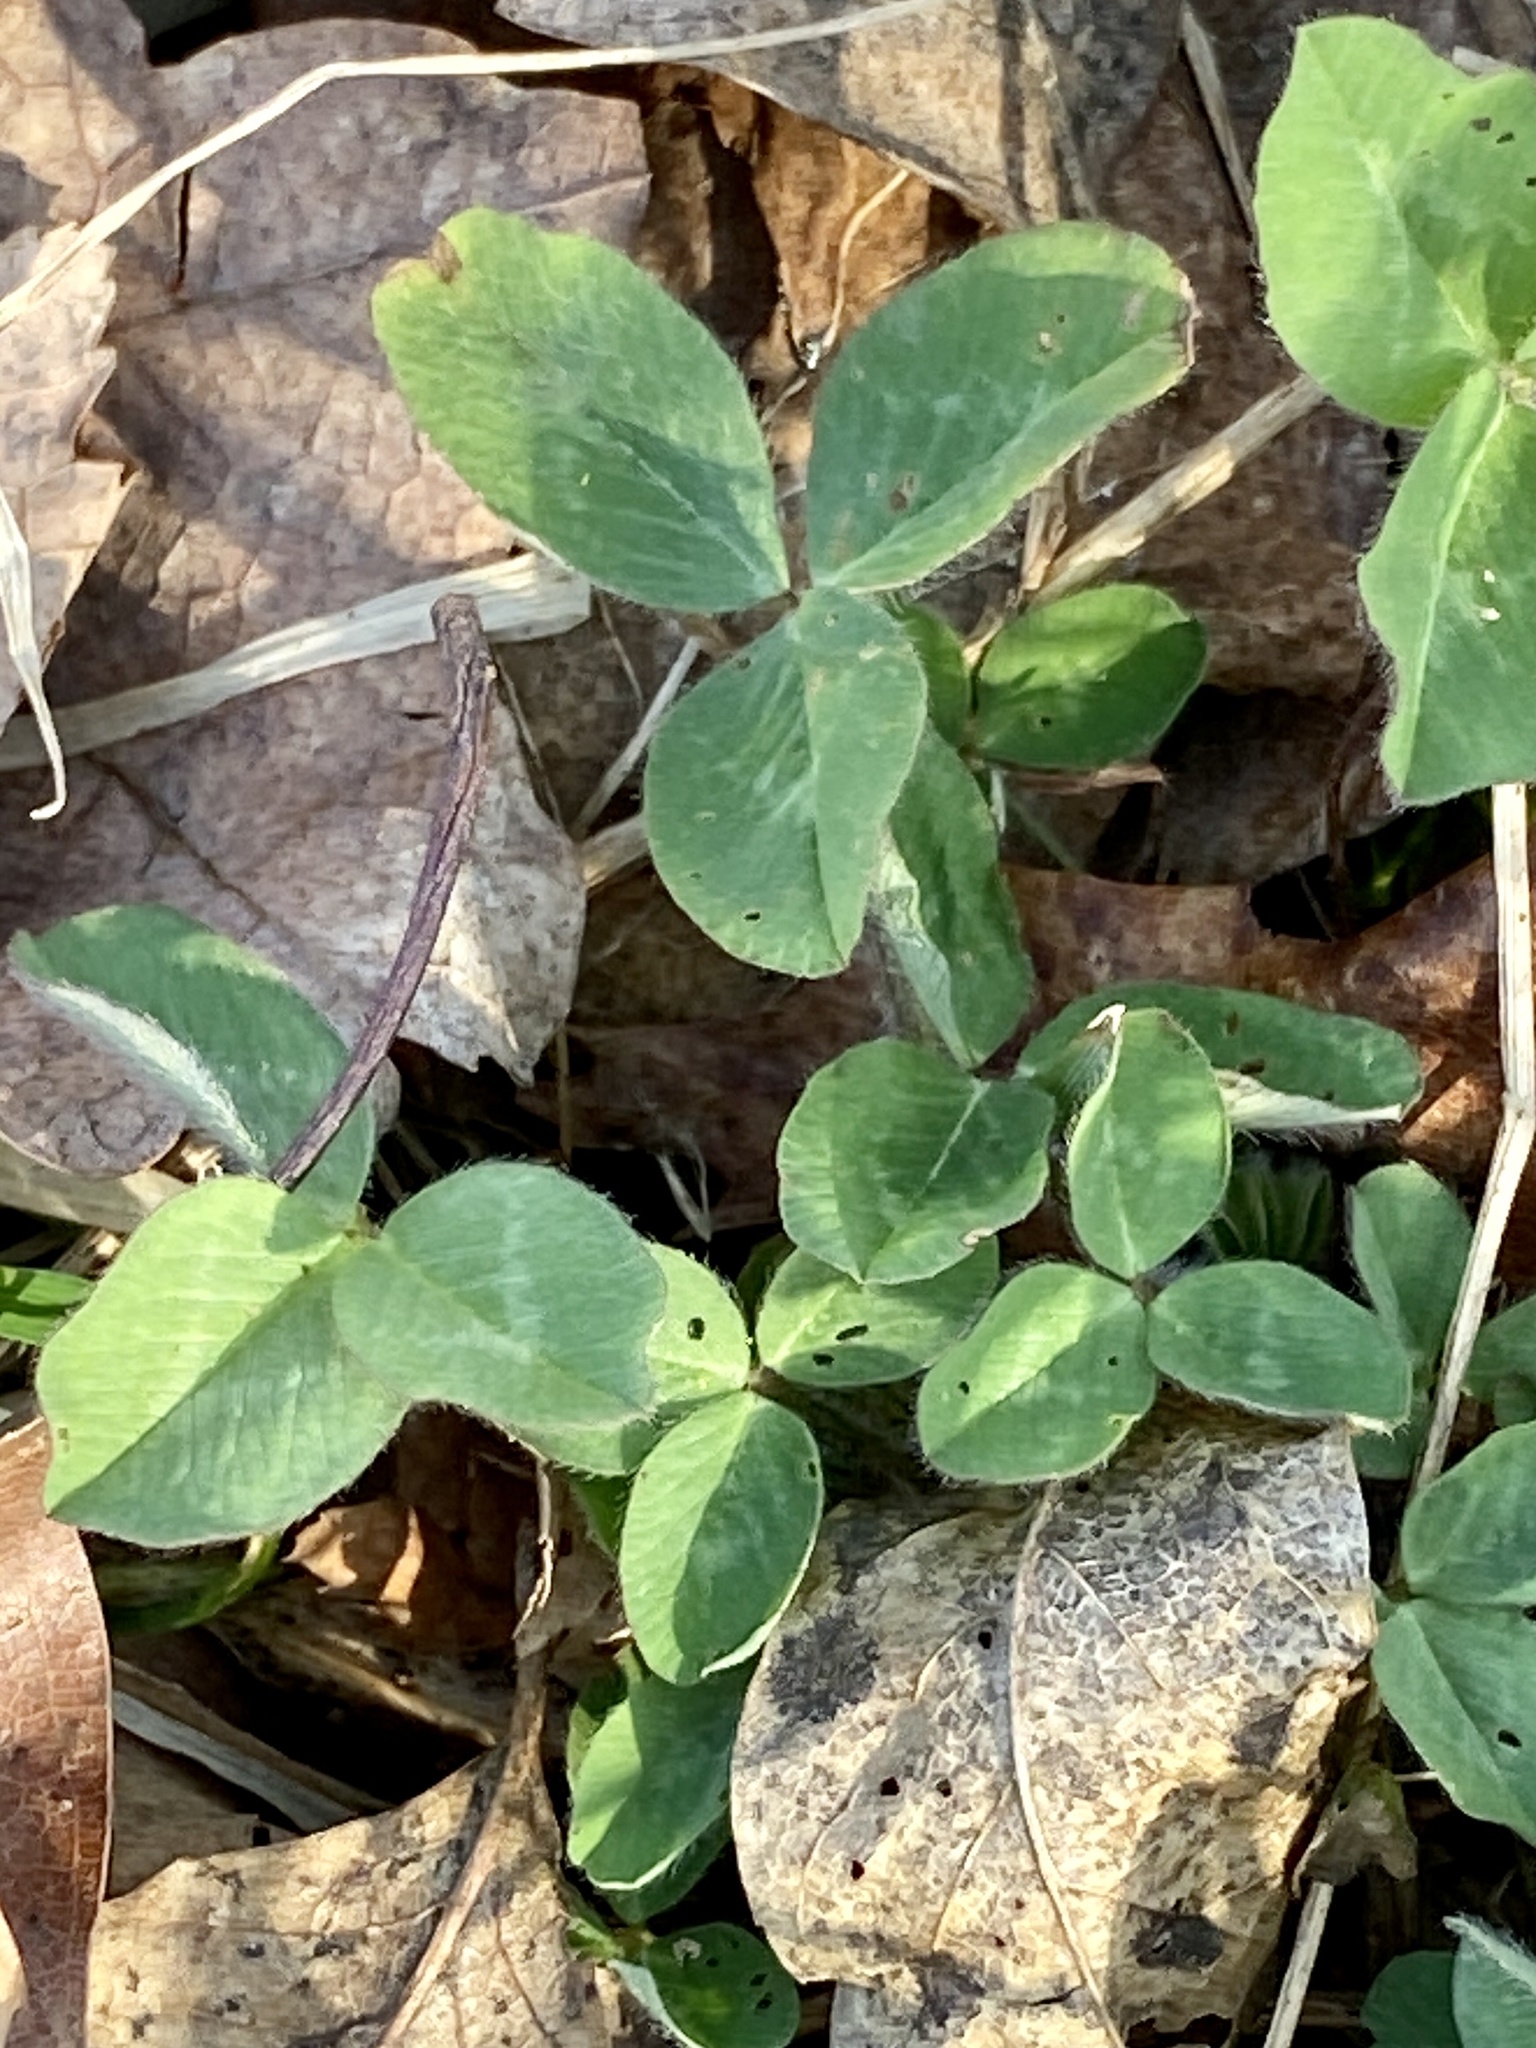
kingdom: Plantae
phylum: Tracheophyta
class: Magnoliopsida
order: Fabales
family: Fabaceae
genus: Trifolium
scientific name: Trifolium pratense
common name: Red clover
